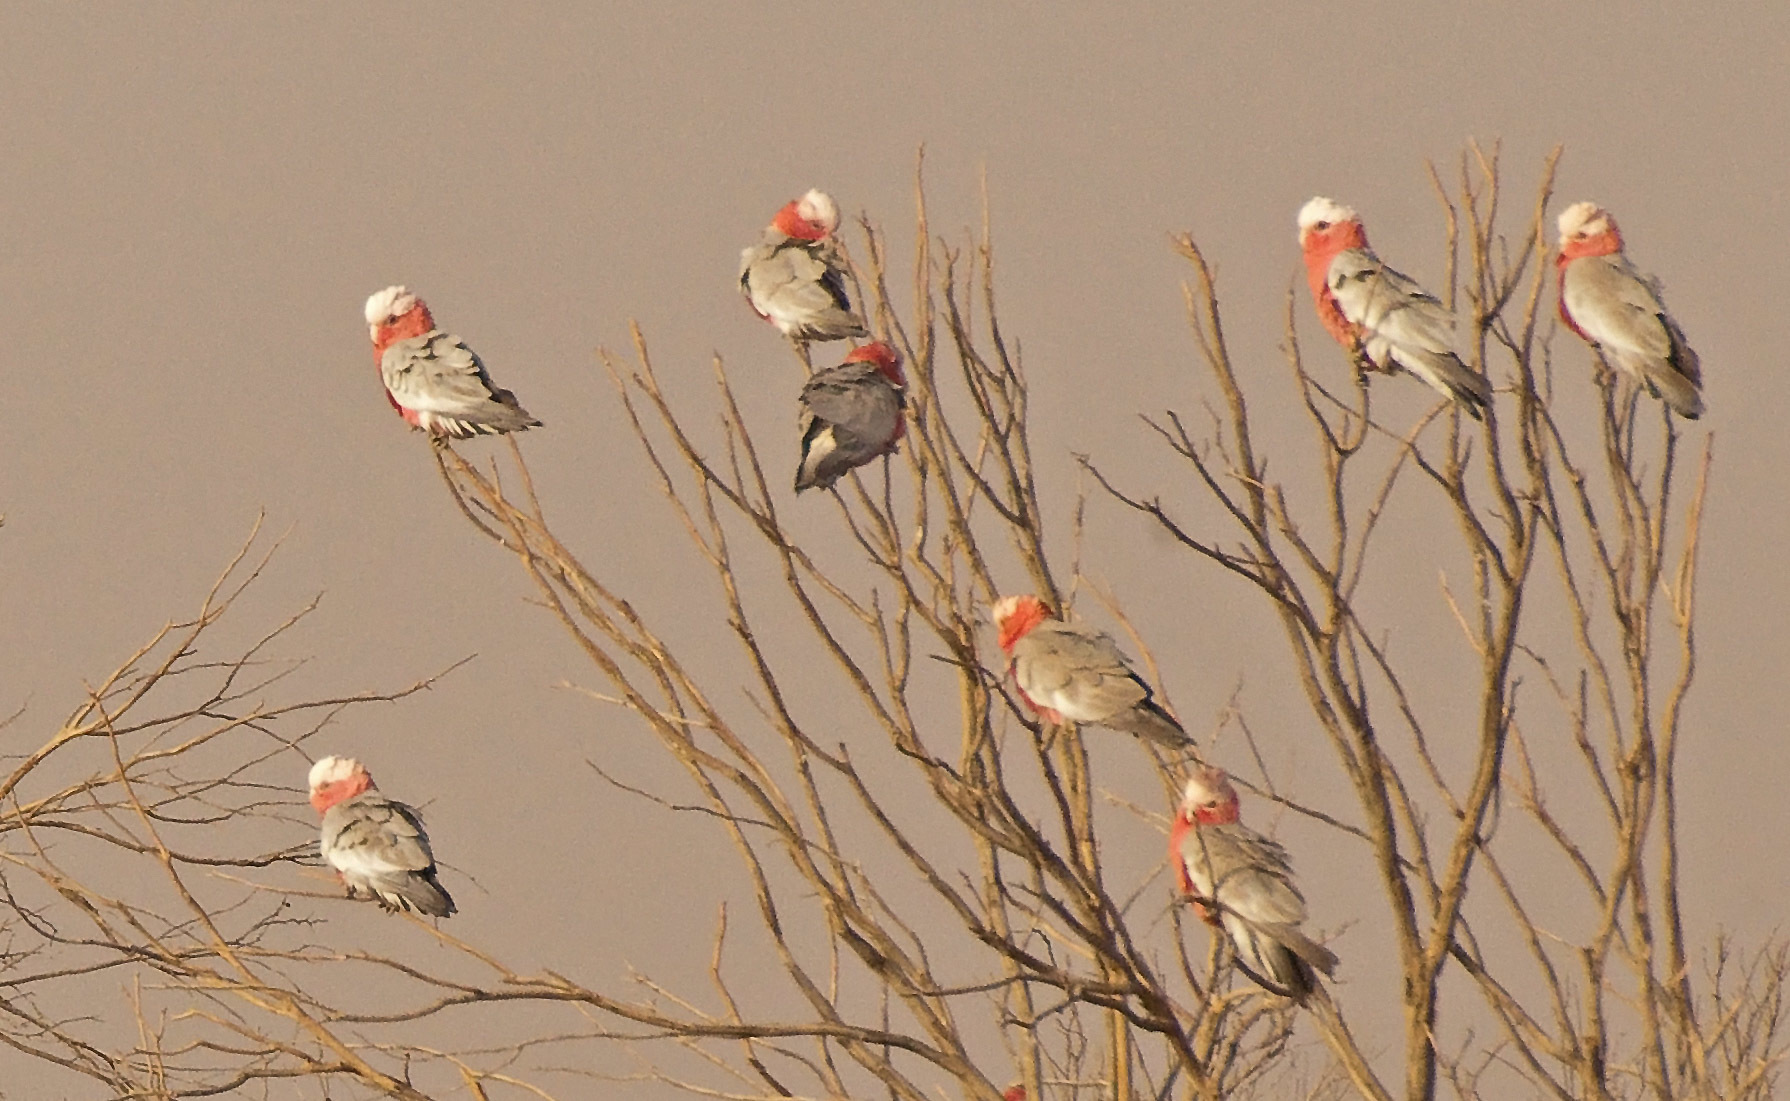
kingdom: Animalia
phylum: Chordata
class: Aves
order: Psittaciformes
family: Psittacidae
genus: Eolophus
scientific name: Eolophus roseicapilla
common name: Galah
